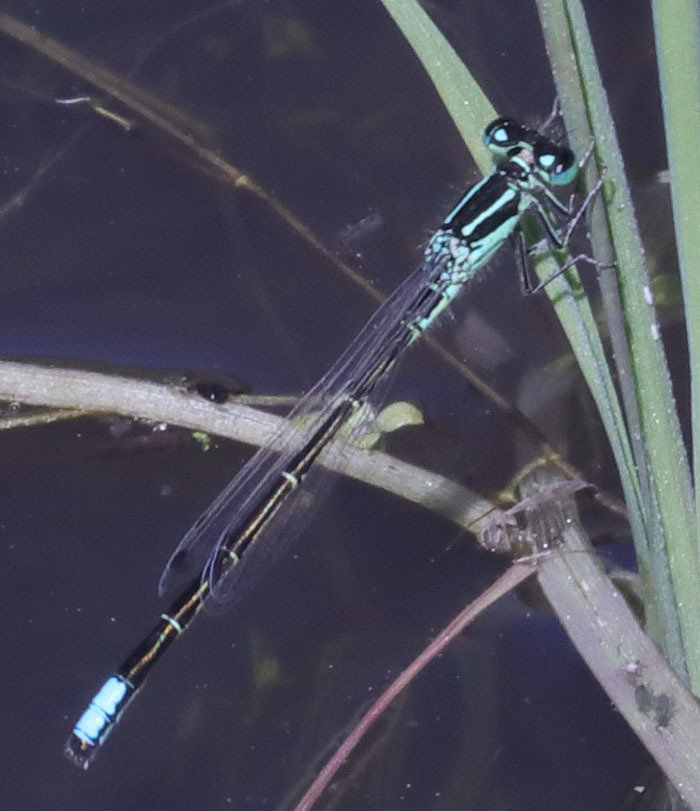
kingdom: Animalia
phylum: Arthropoda
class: Insecta
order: Odonata
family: Coenagrionidae
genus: Ischnura
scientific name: Ischnura perparva
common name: Western forktail
